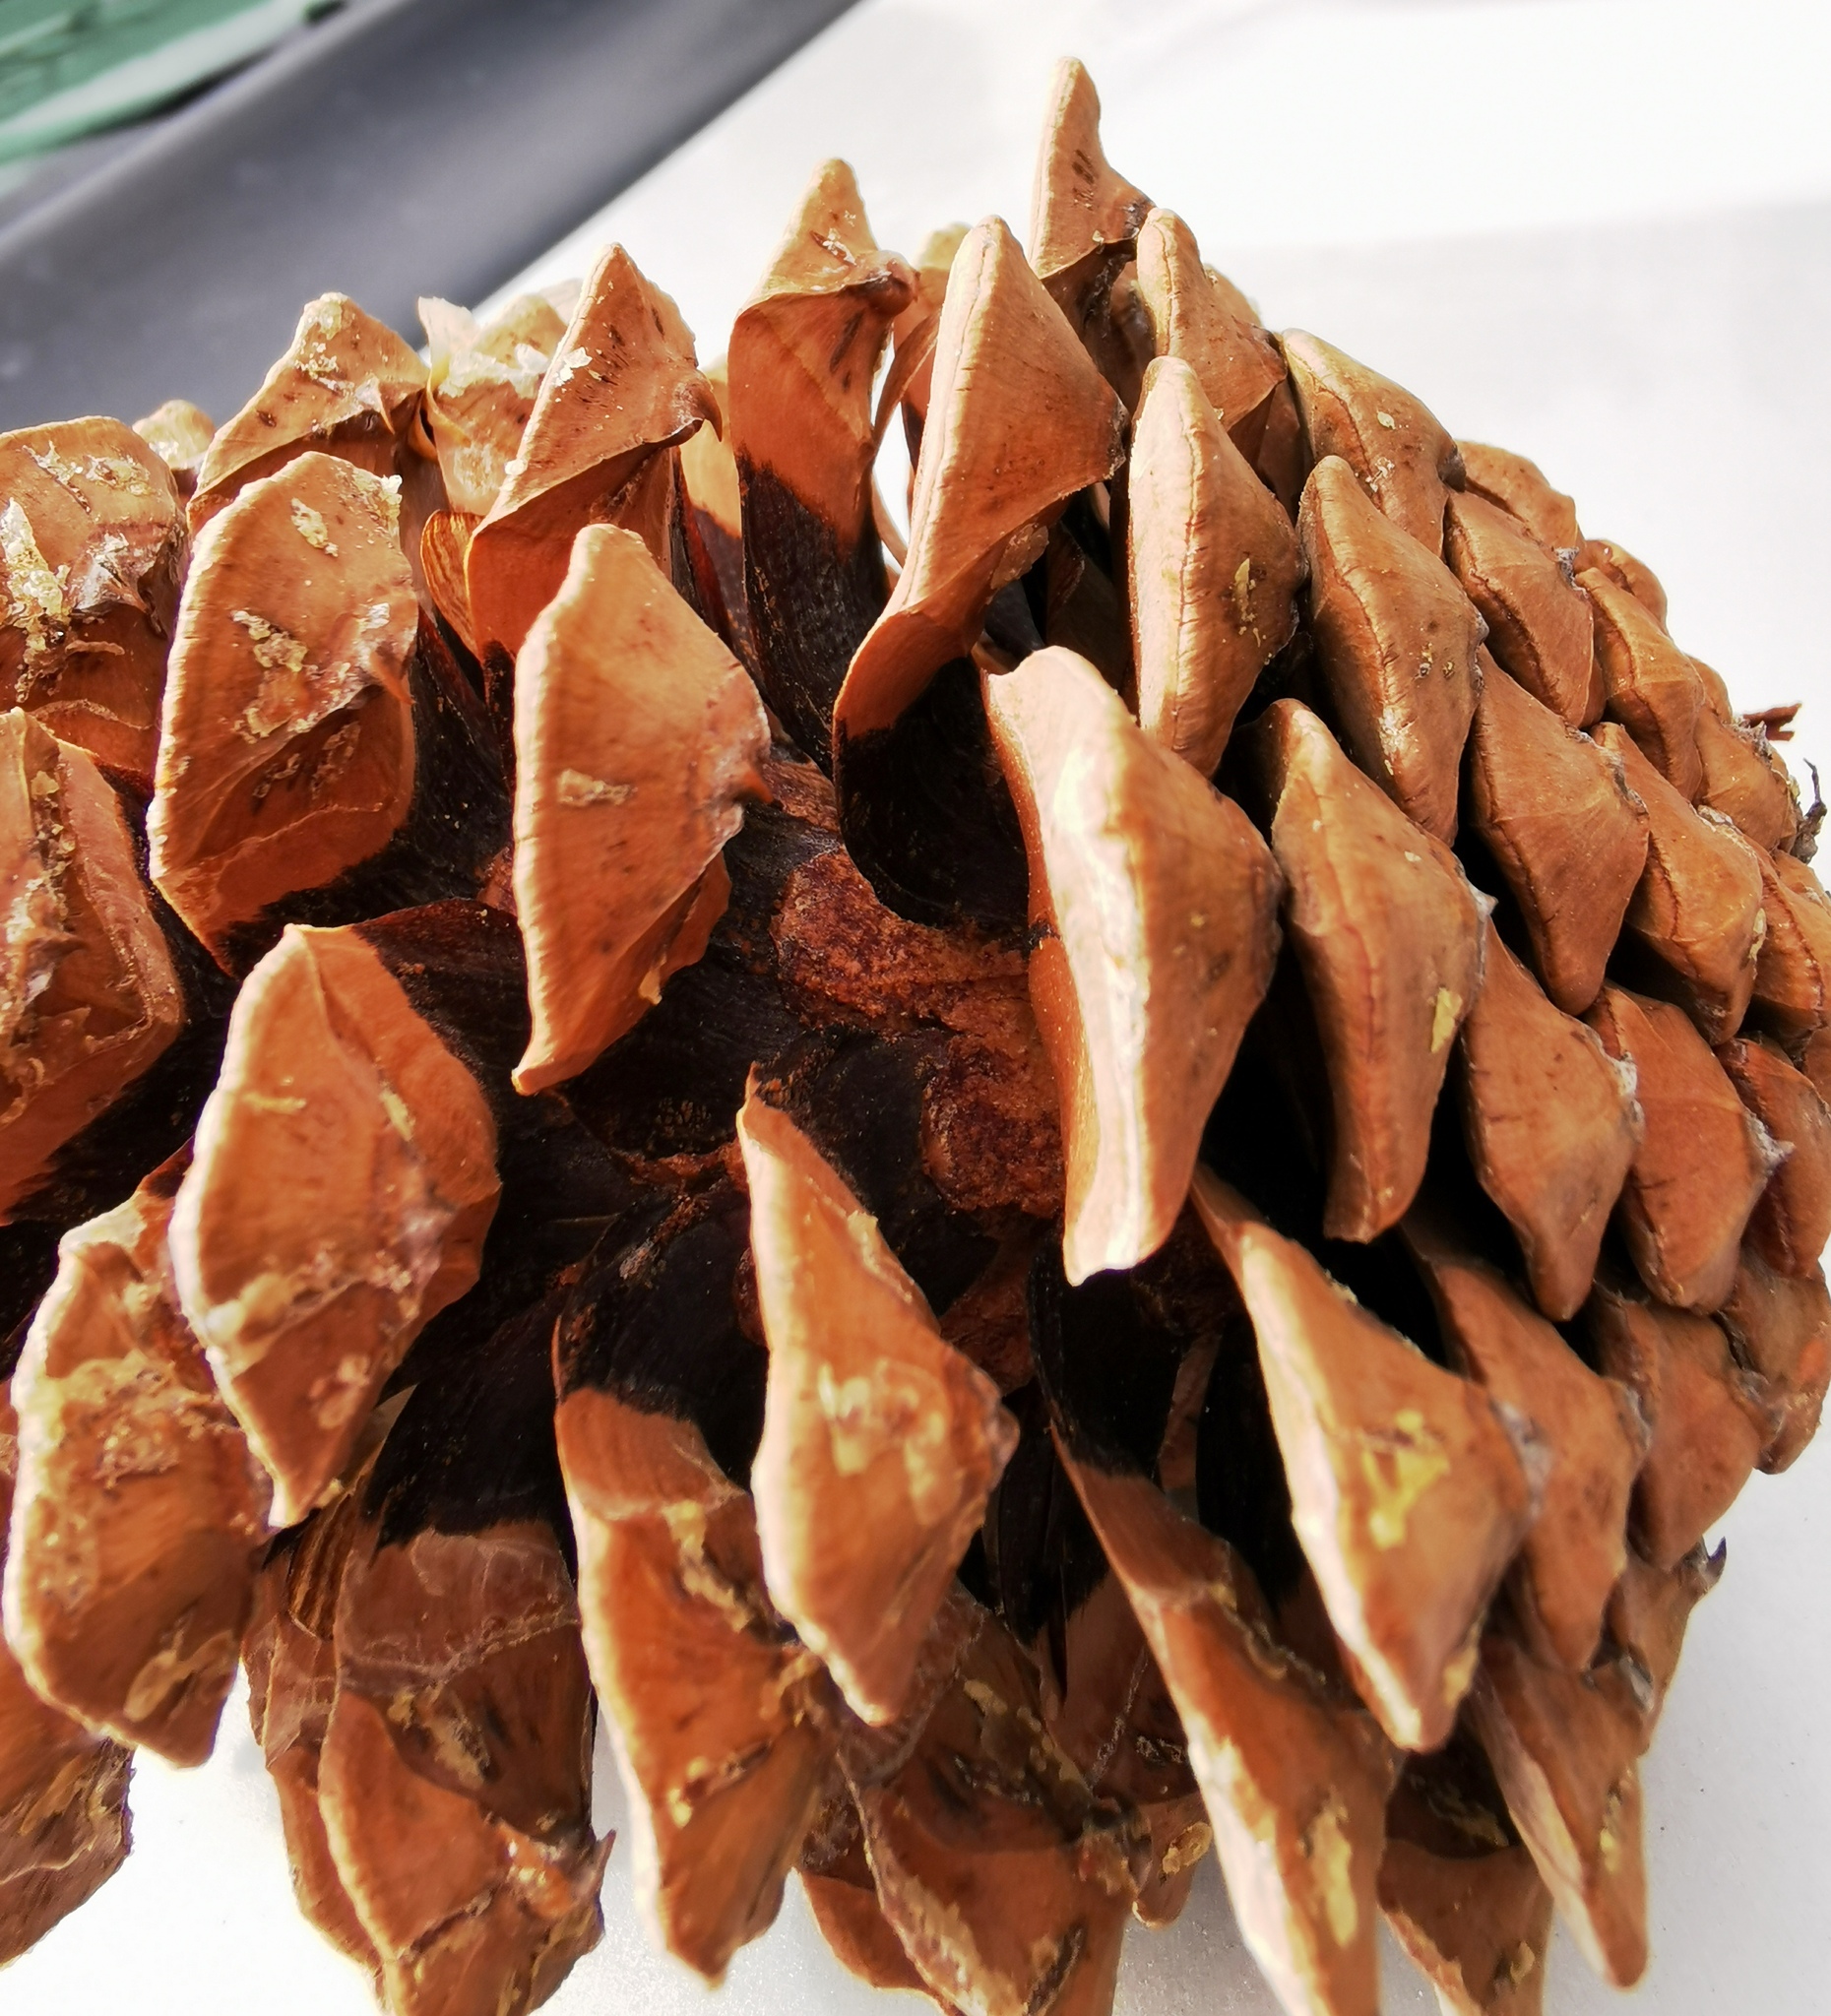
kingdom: Plantae
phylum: Tracheophyta
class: Pinopsida
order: Pinales
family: Pinaceae
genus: Pinus
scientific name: Pinus devoniana
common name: Michoacan pine
